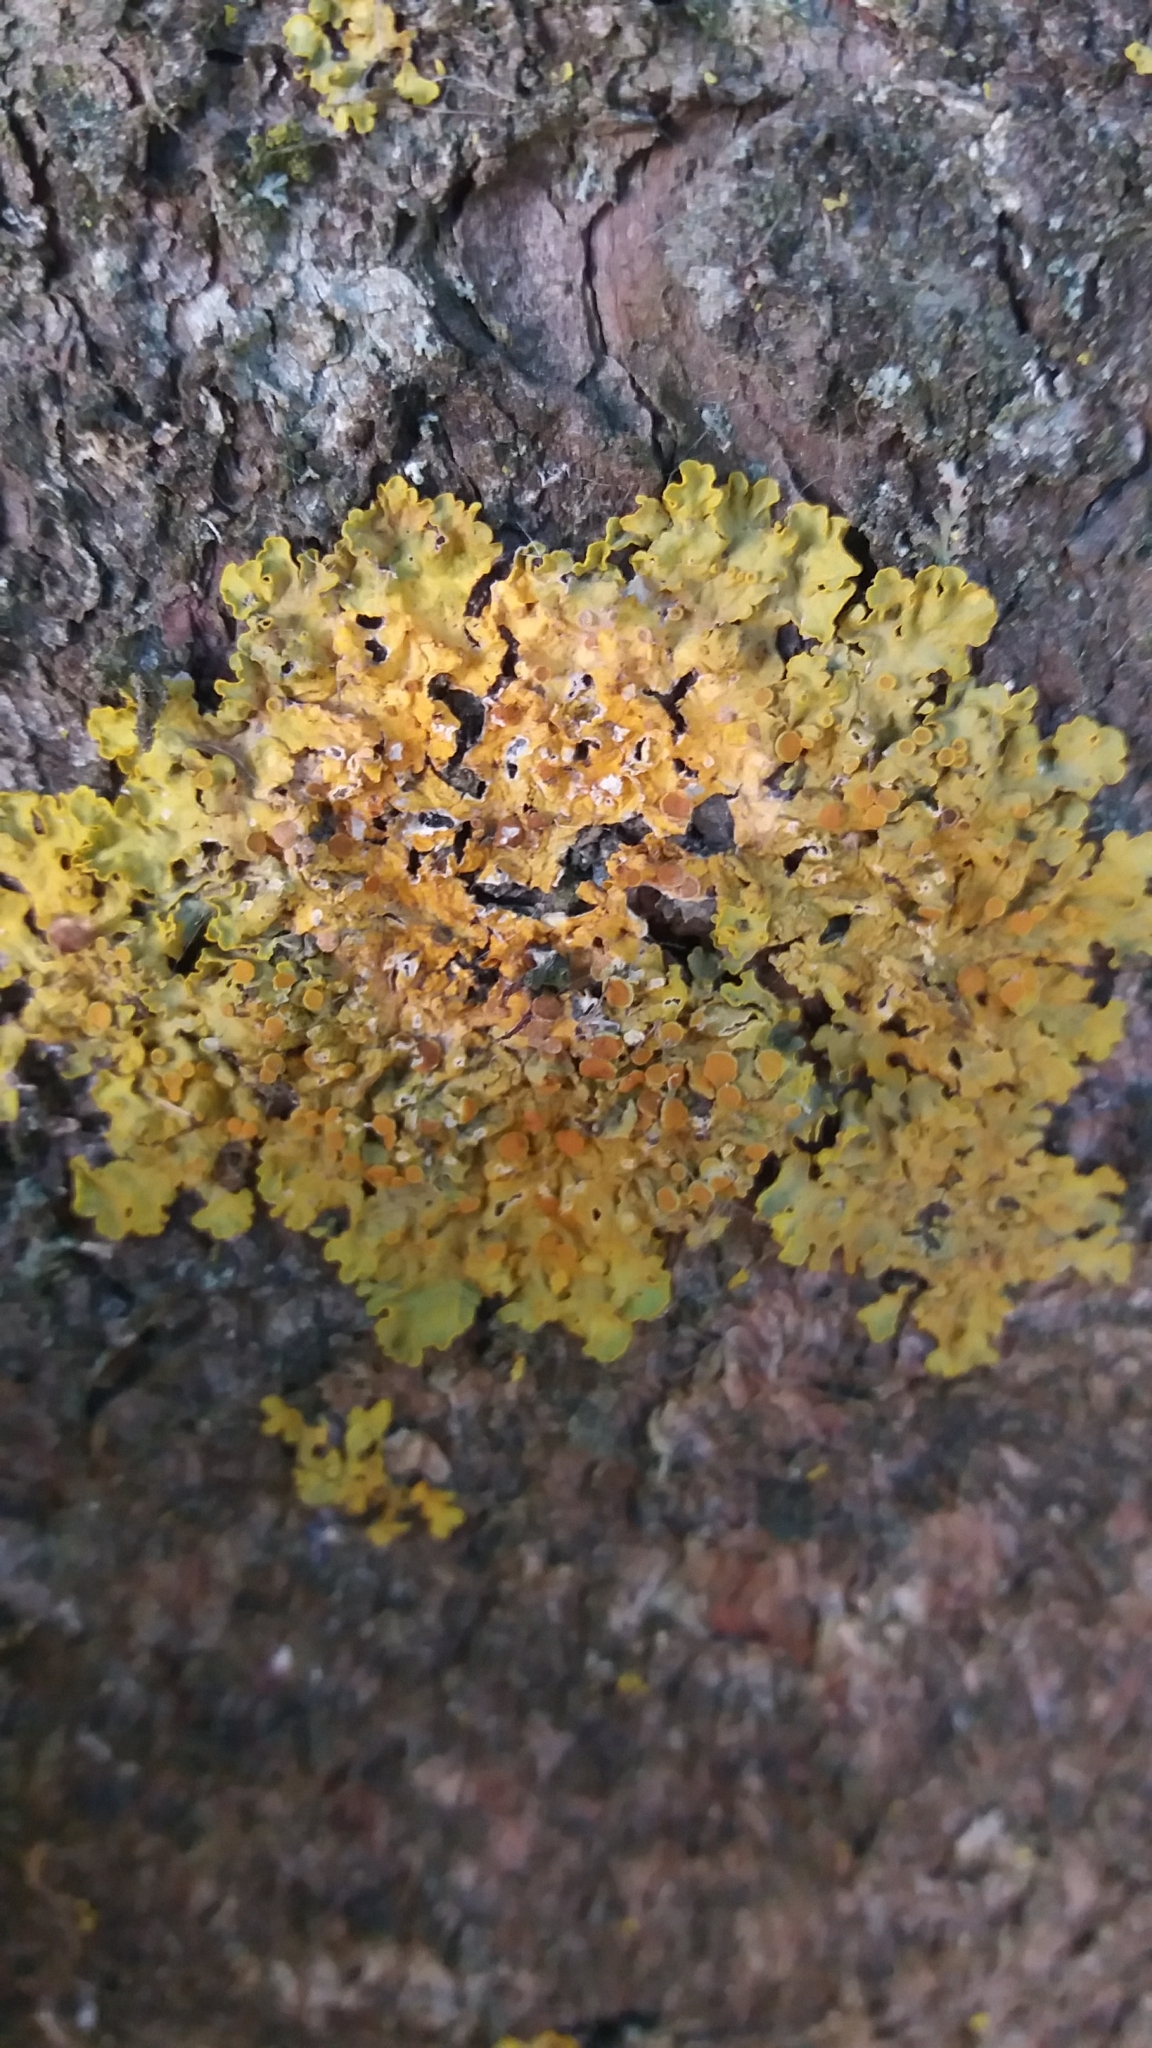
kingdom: Fungi
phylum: Ascomycota
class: Lecanoromycetes
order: Teloschistales
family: Teloschistaceae
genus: Xanthoria
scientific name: Xanthoria parietina
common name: Common orange lichen
